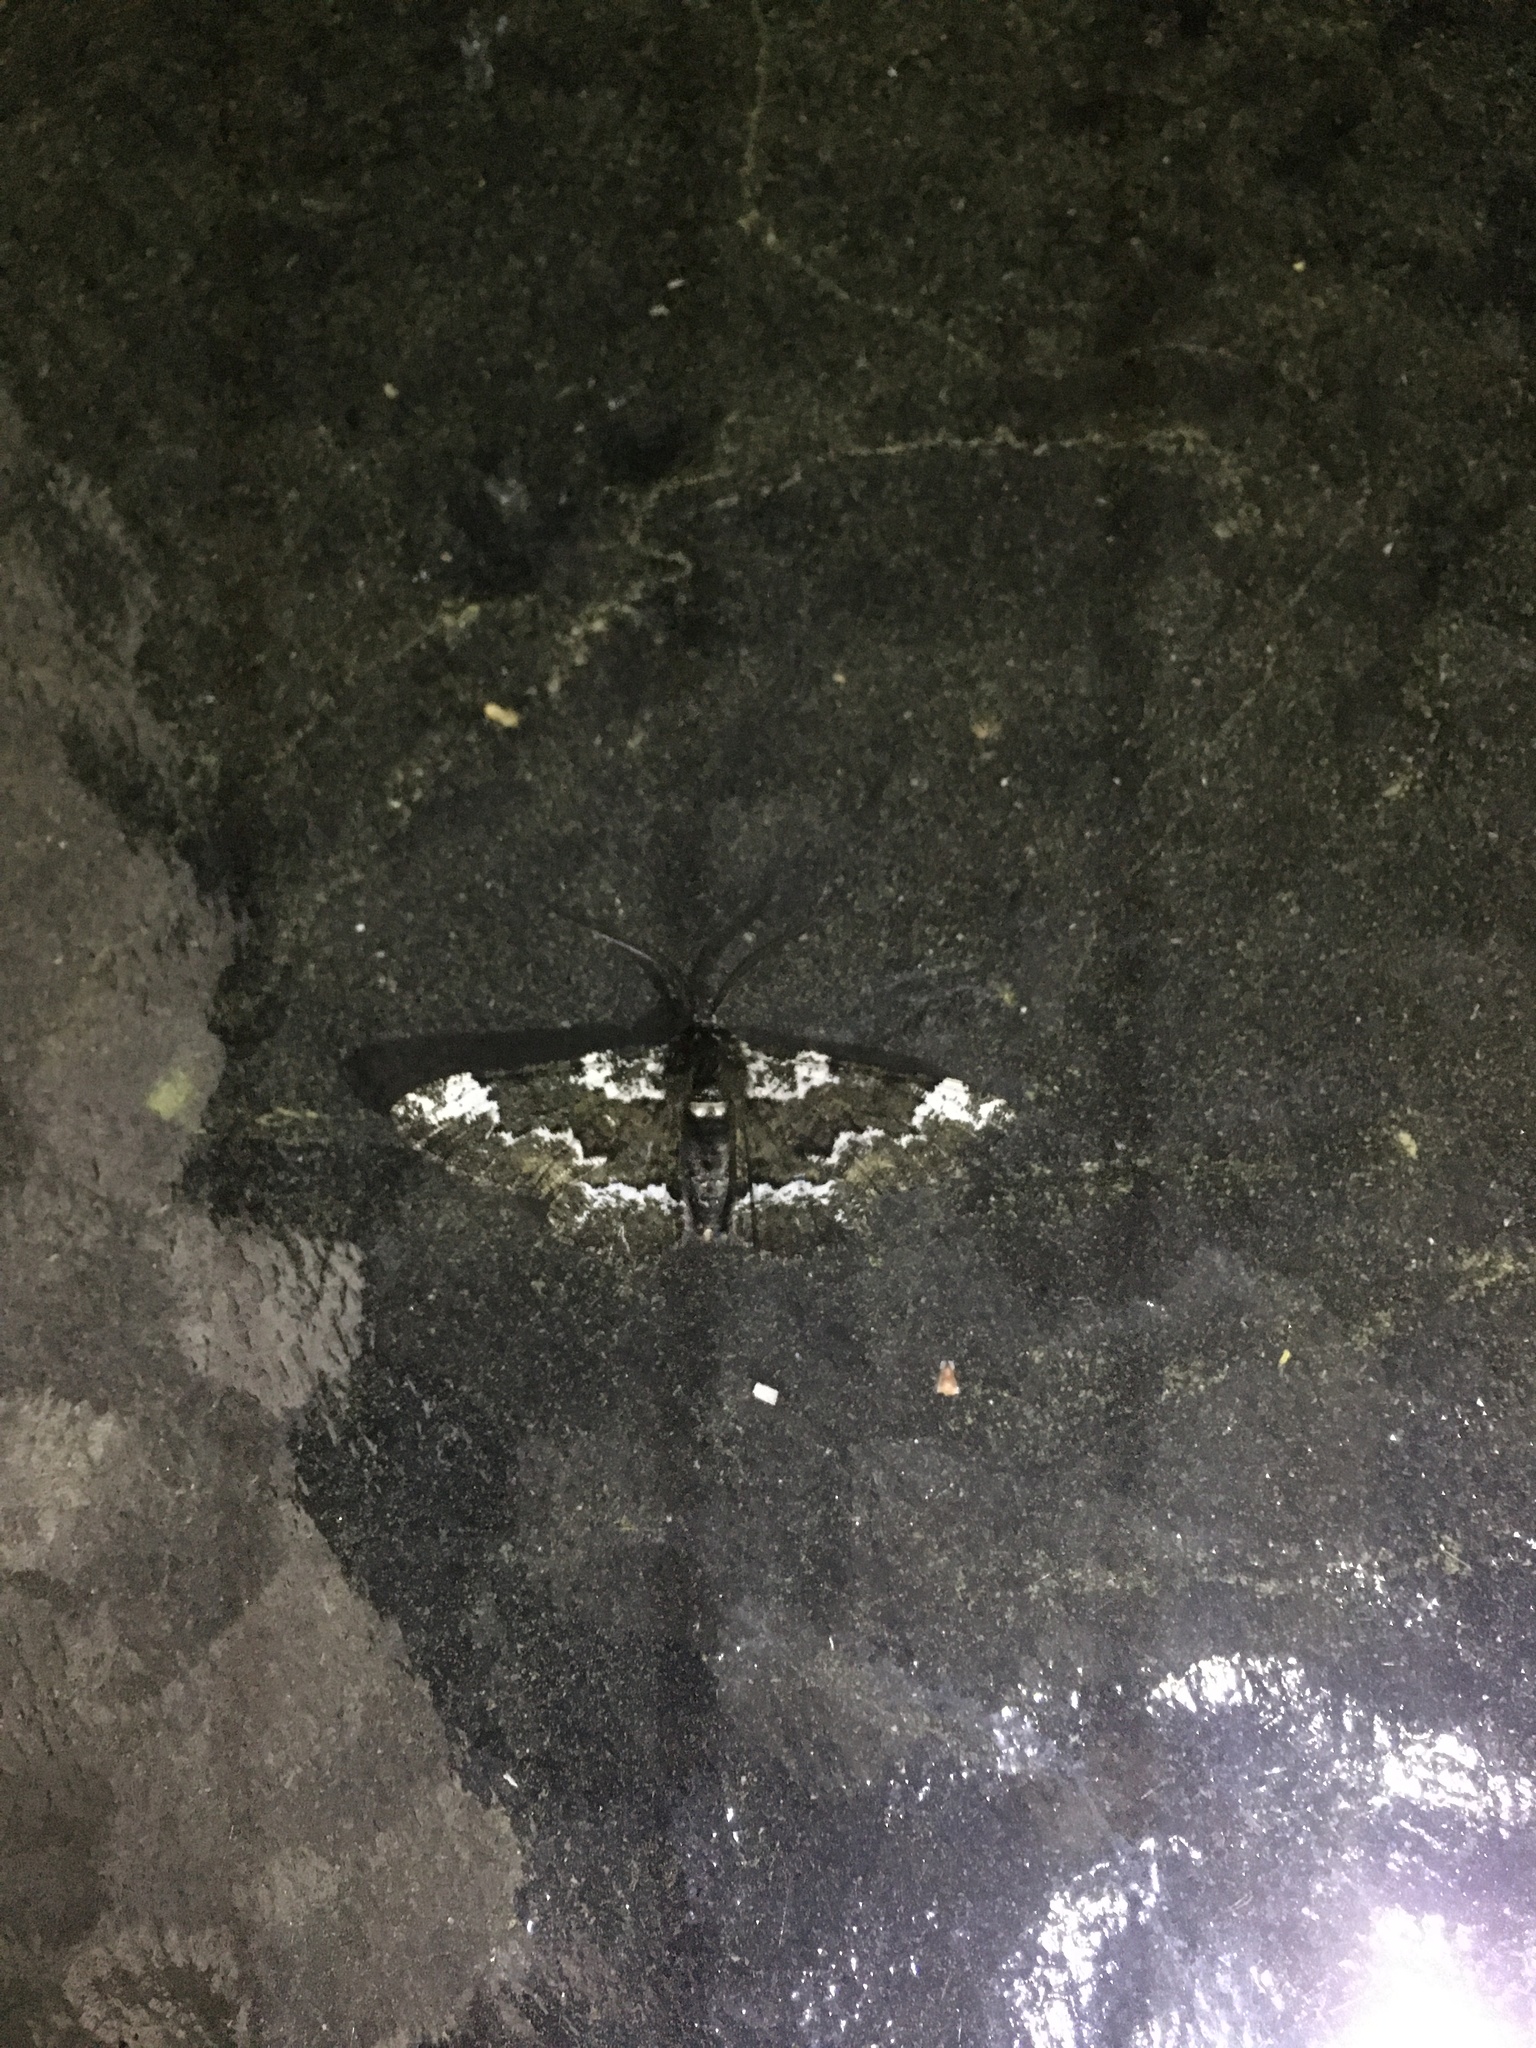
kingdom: Animalia
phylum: Arthropoda
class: Insecta
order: Lepidoptera
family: Geometridae
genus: Phaeoura
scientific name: Phaeoura quernaria
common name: Oak beauty
